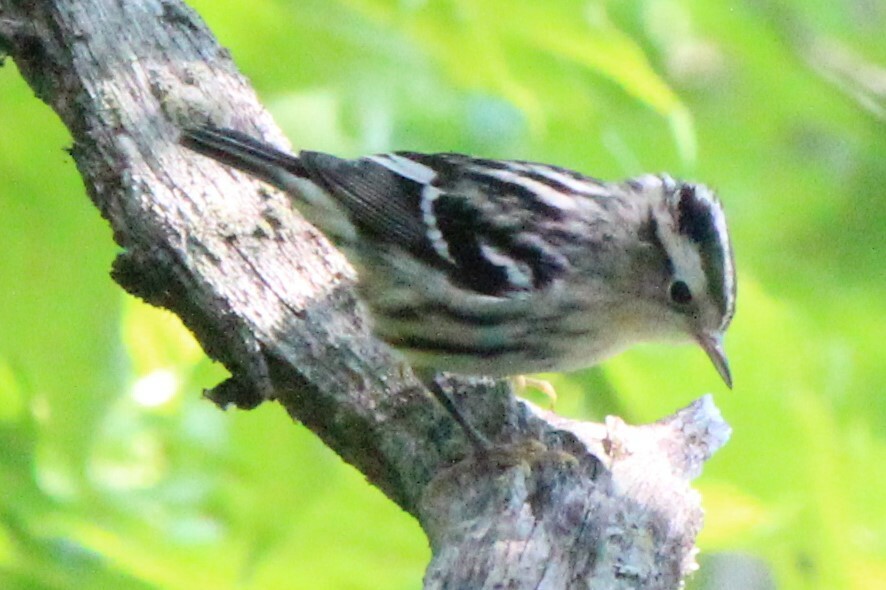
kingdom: Animalia
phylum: Chordata
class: Aves
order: Passeriformes
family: Parulidae
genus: Mniotilta
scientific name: Mniotilta varia
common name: Black-and-white warbler
